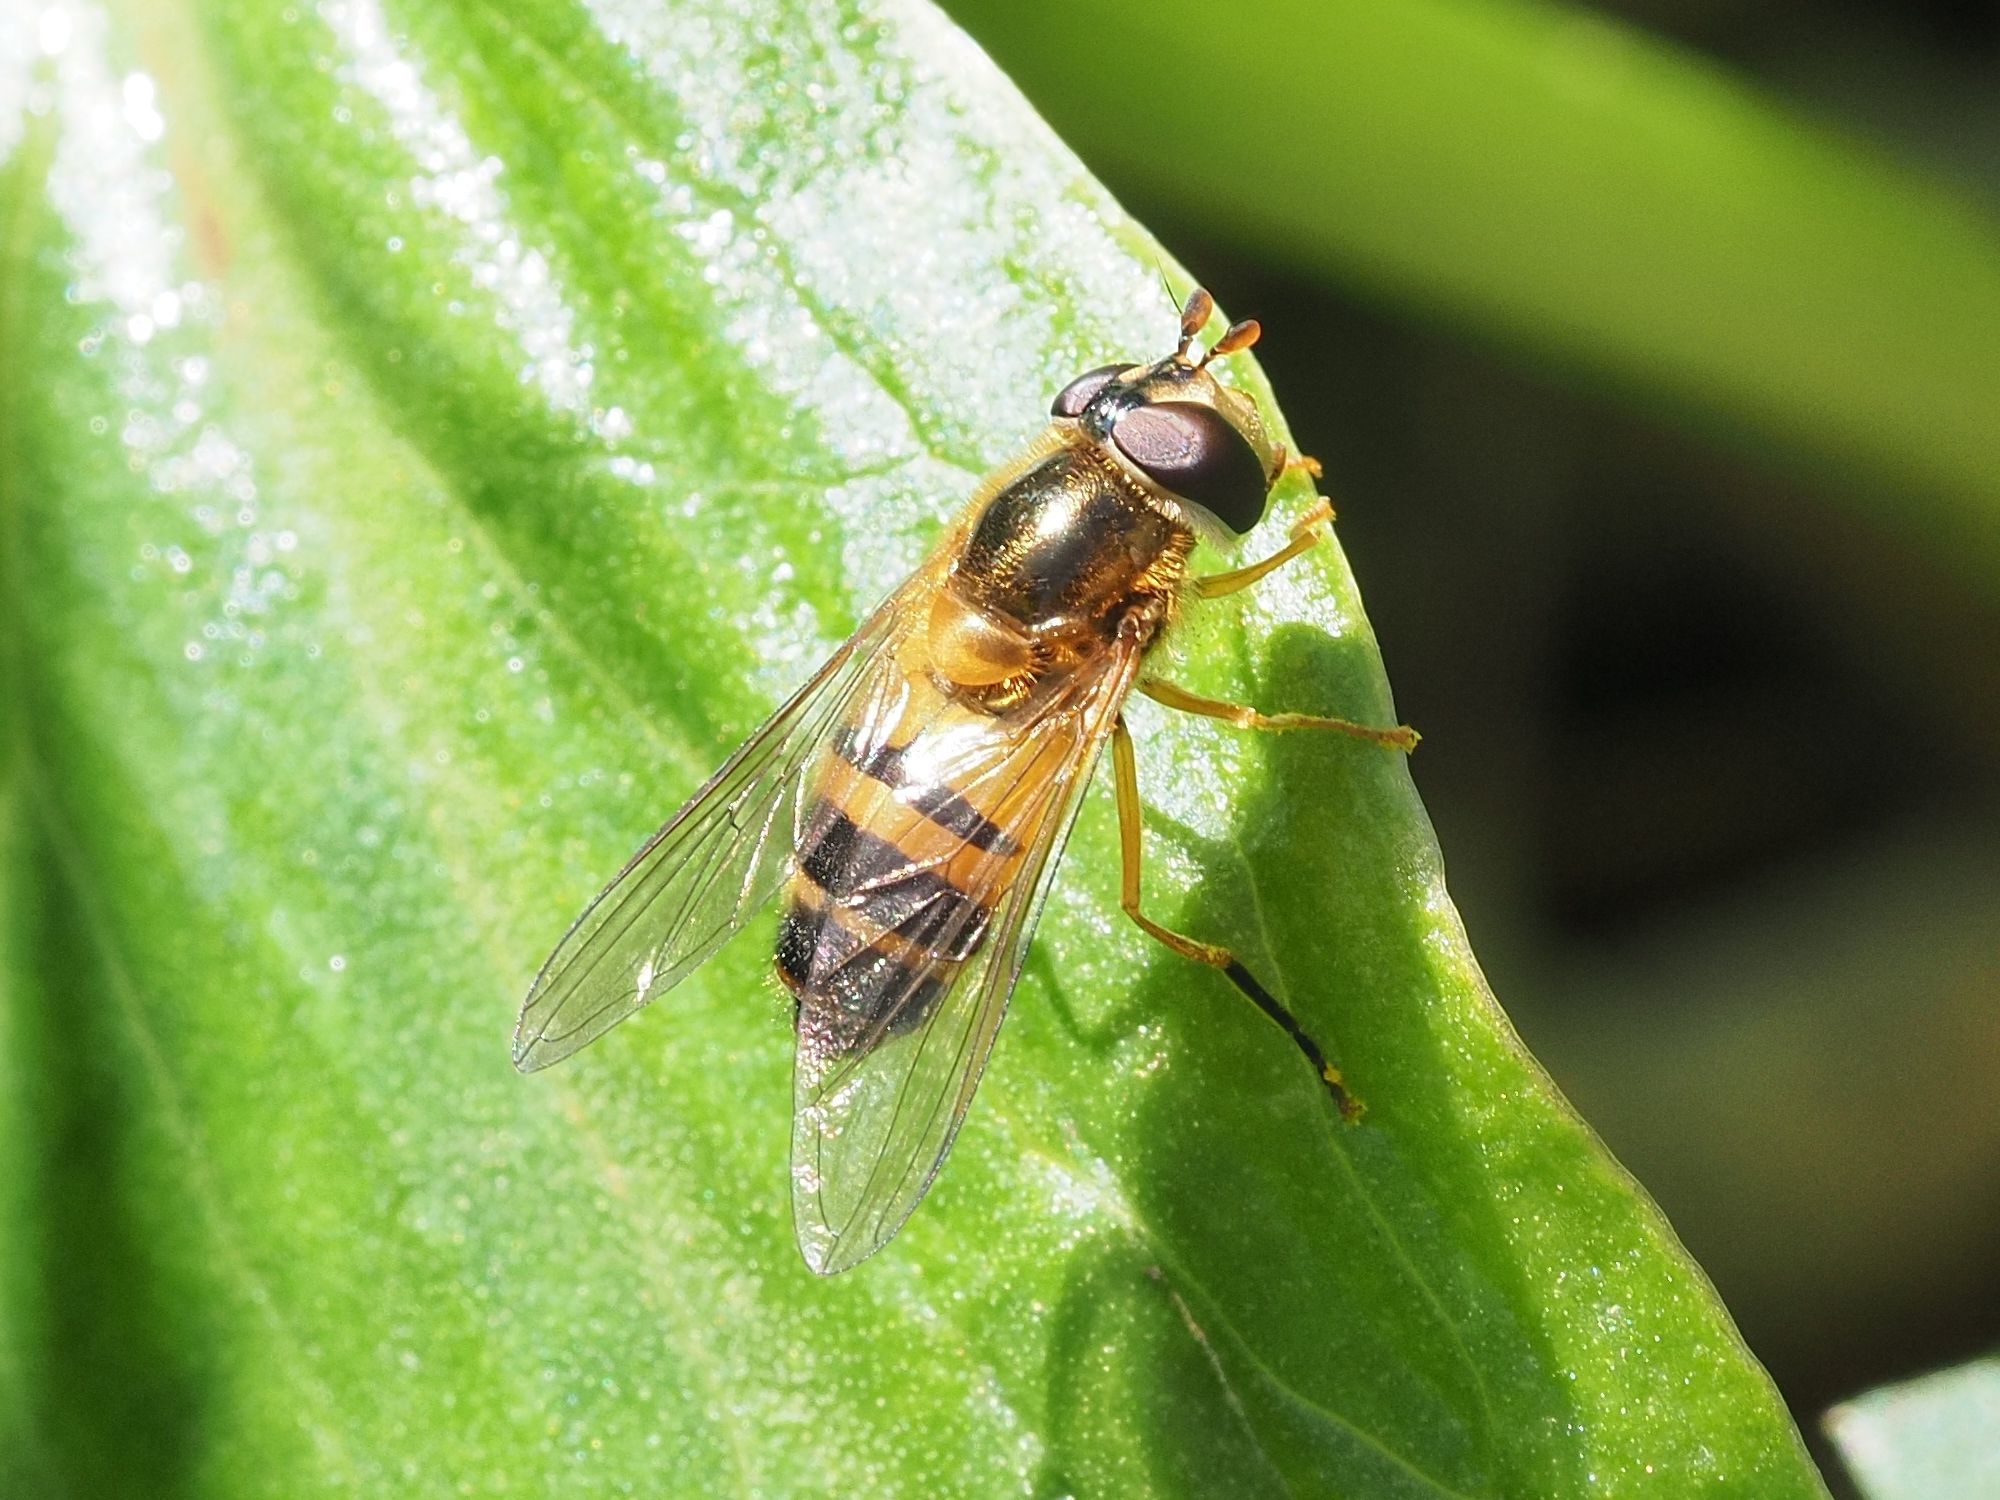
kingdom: Animalia
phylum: Arthropoda
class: Insecta
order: Diptera
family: Syrphidae
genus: Epistrophe
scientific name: Epistrophe eligans
